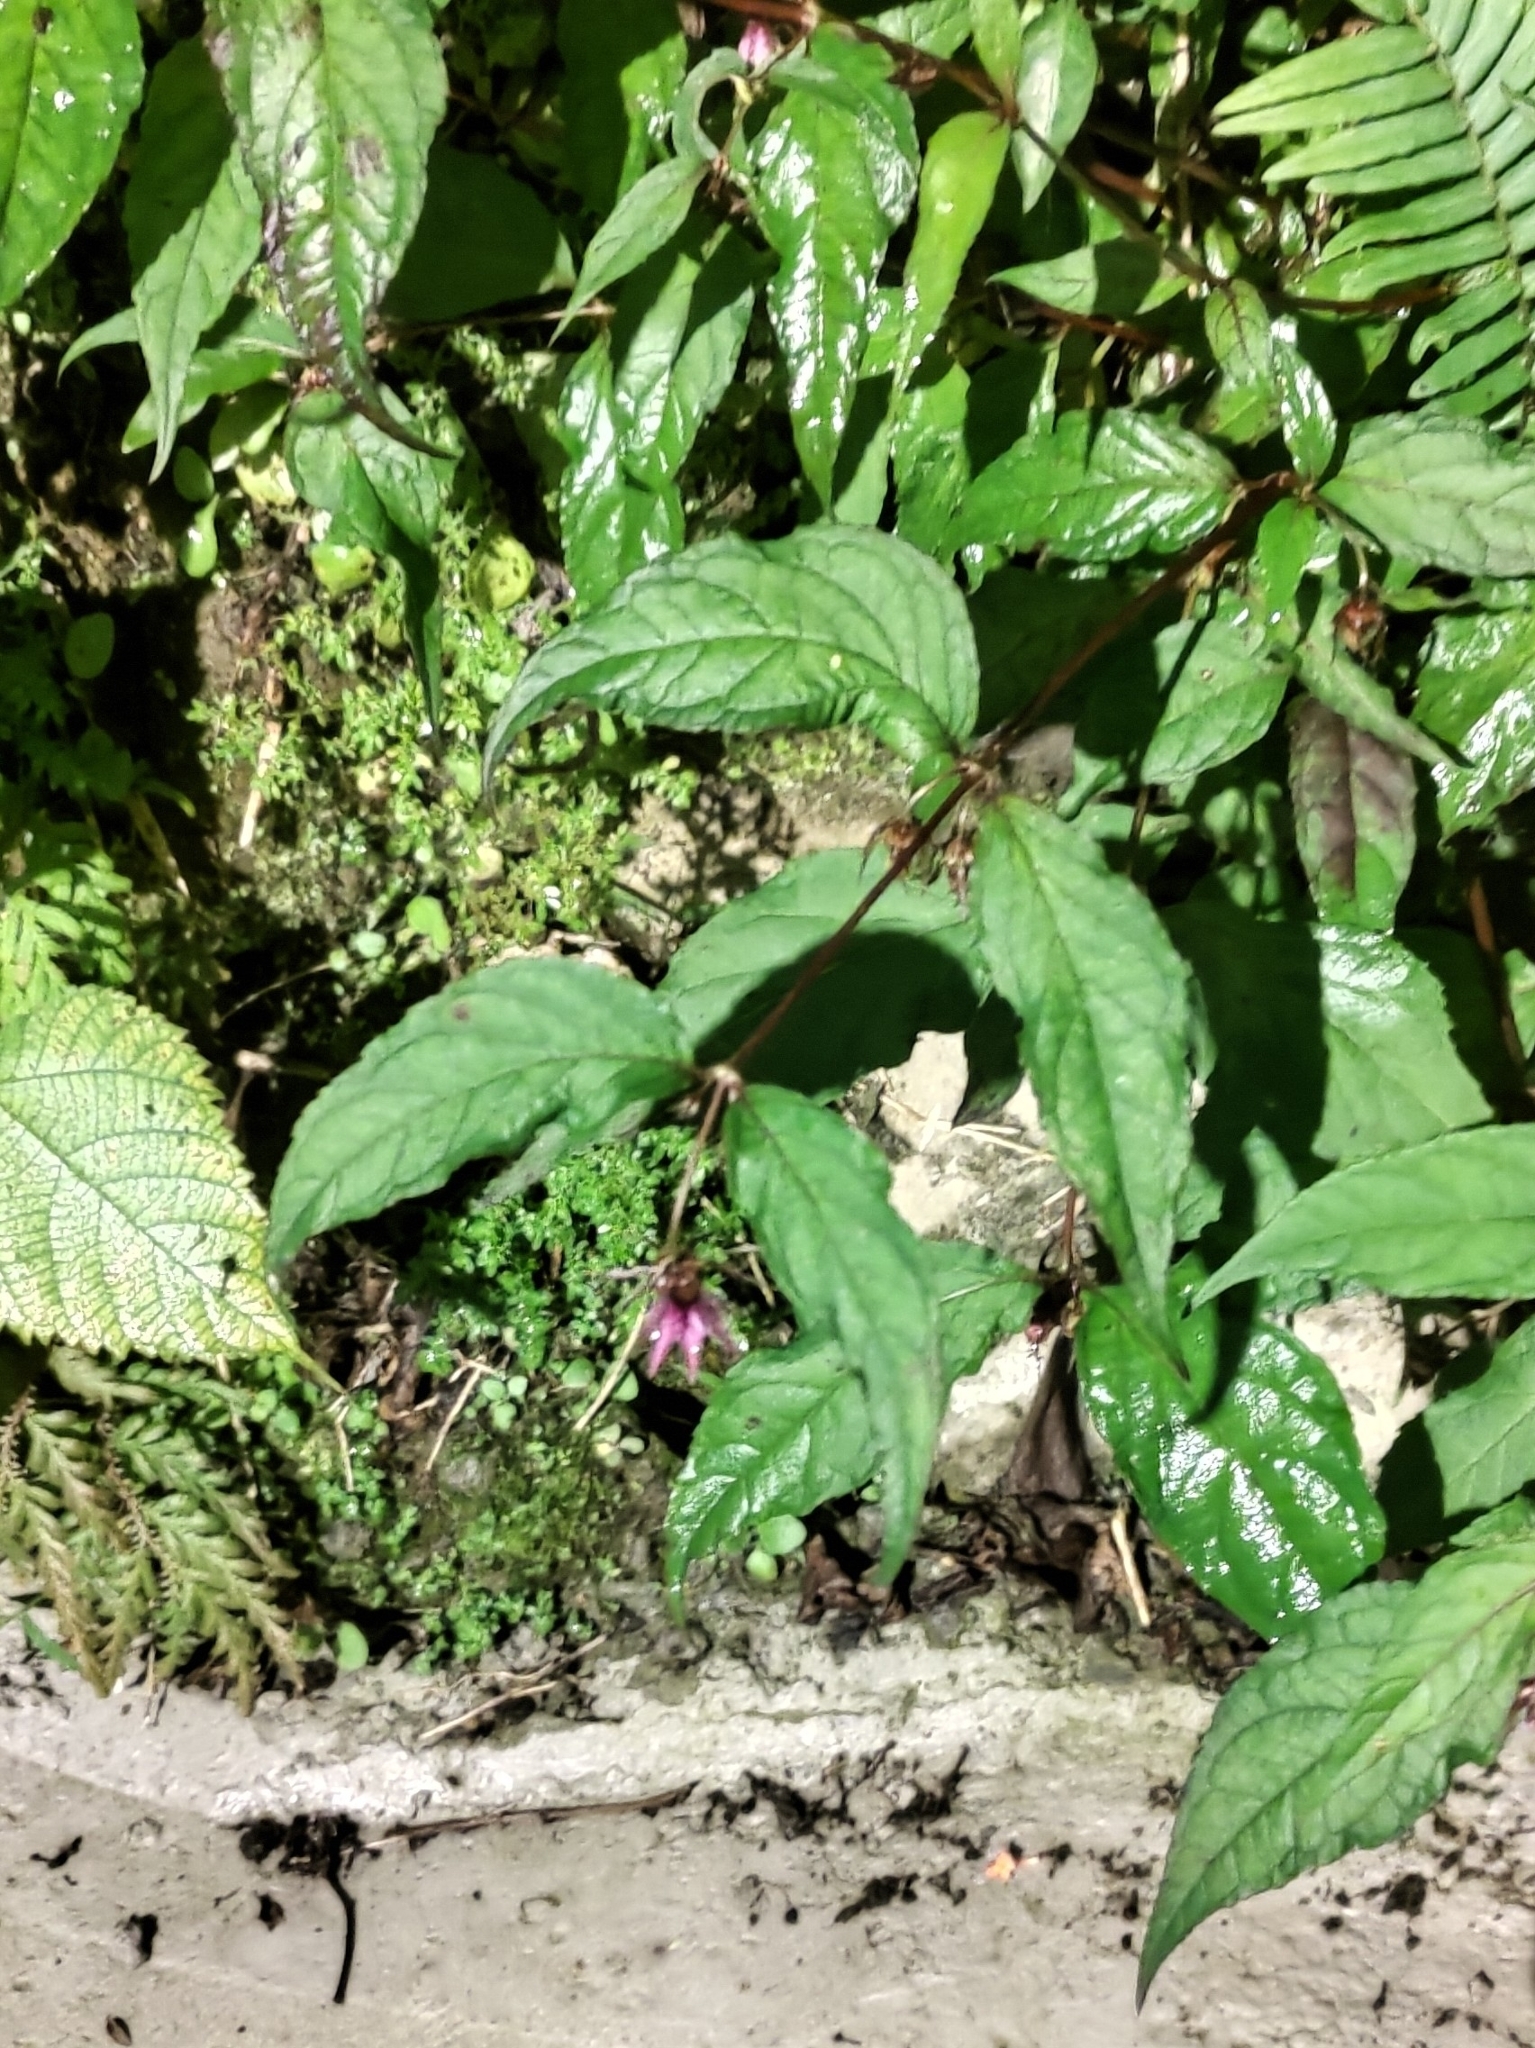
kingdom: Plantae
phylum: Tracheophyta
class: Magnoliopsida
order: Asterales
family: Campanulaceae
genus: Cyclocodon
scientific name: Cyclocodon lancifolius
